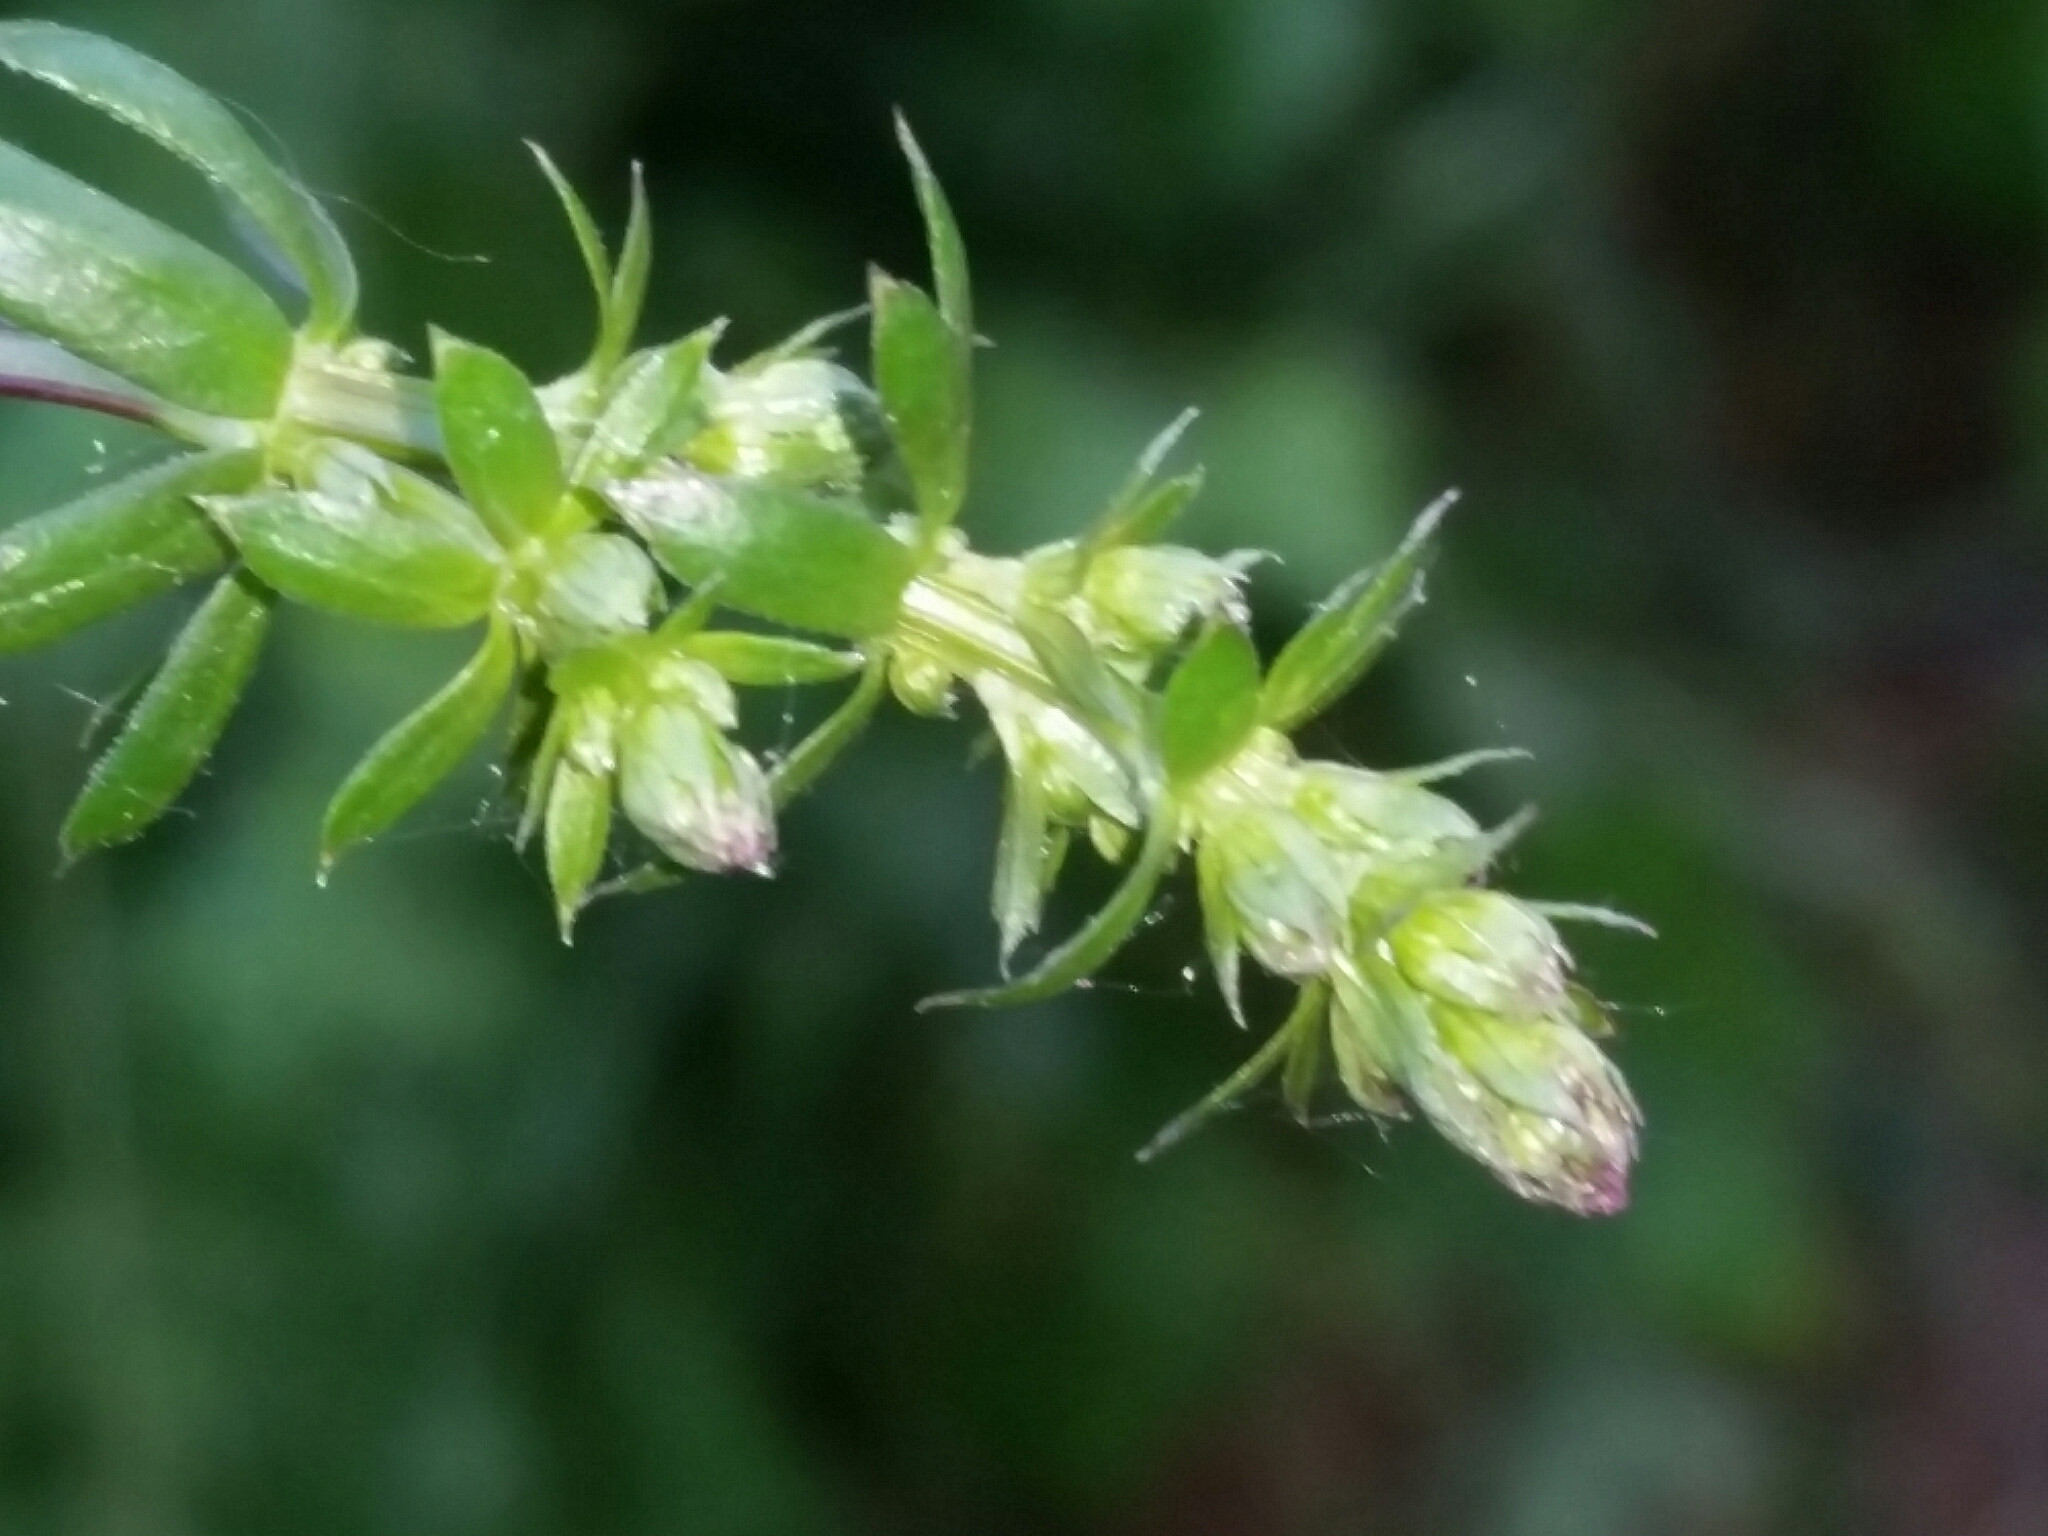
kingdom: Plantae
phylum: Tracheophyta
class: Magnoliopsida
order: Gentianales
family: Rubiaceae
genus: Galium
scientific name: Galium mollugo
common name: Hedge bedstraw
